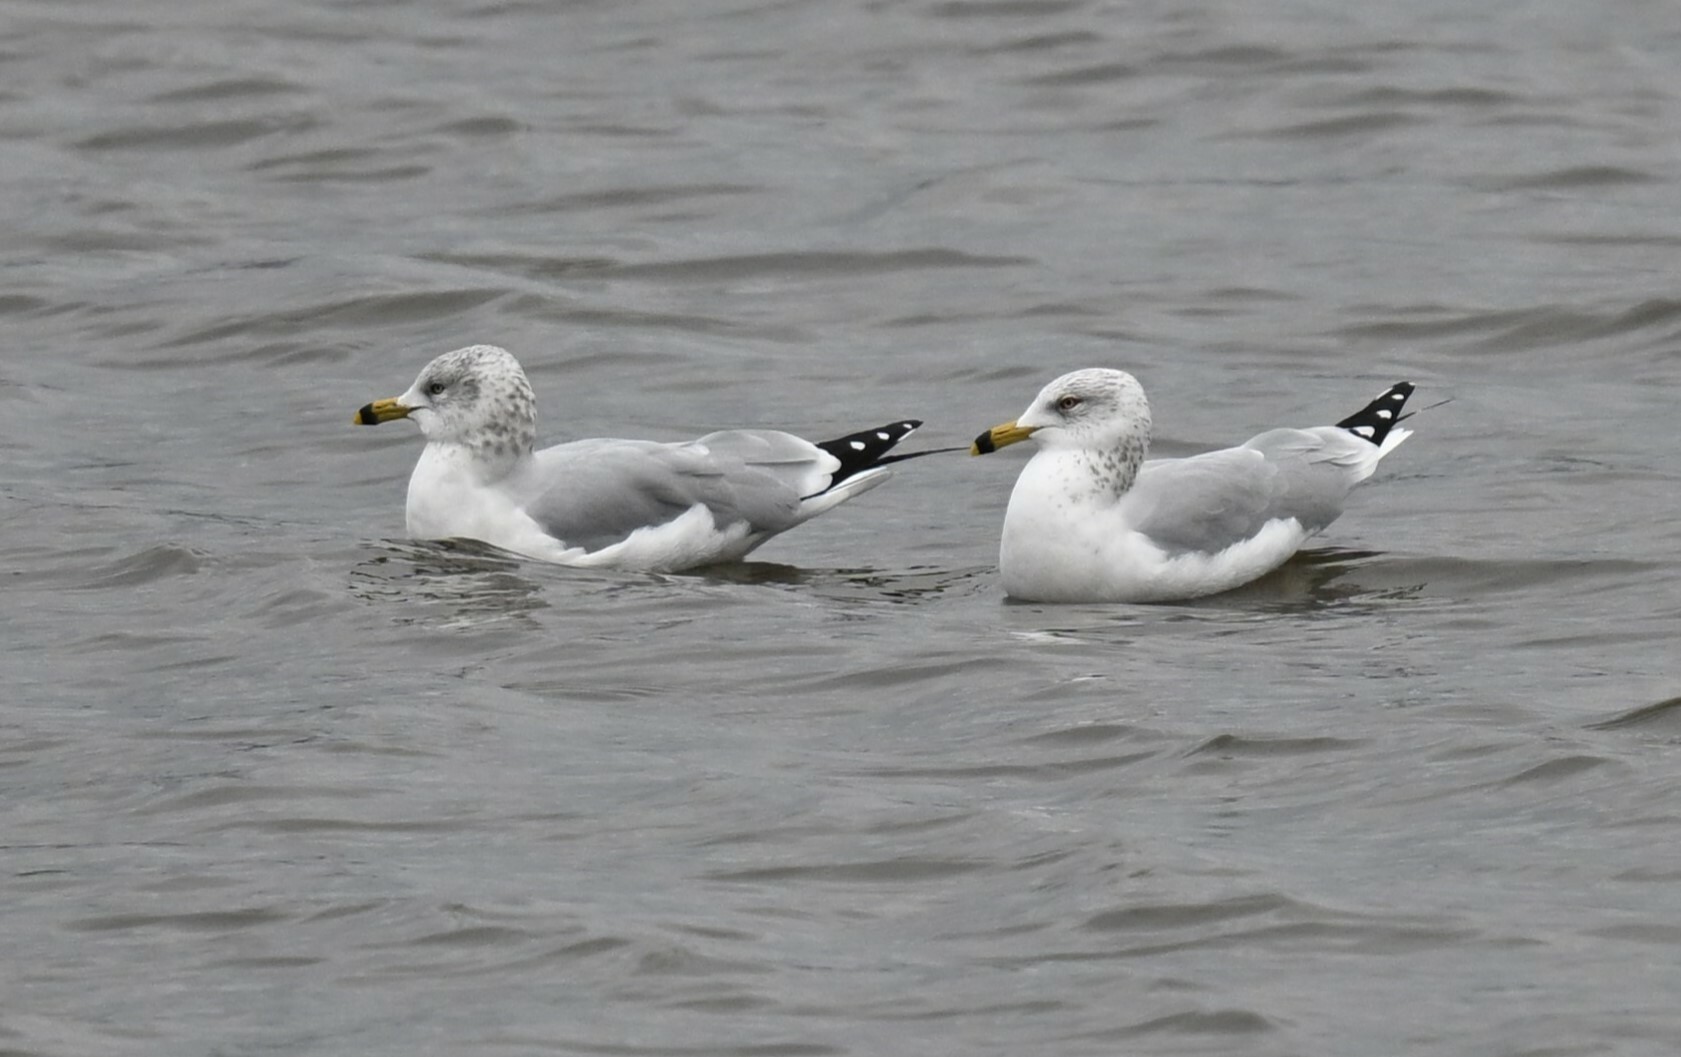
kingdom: Animalia
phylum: Chordata
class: Aves
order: Charadriiformes
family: Laridae
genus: Larus
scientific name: Larus delawarensis
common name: Ring-billed gull
